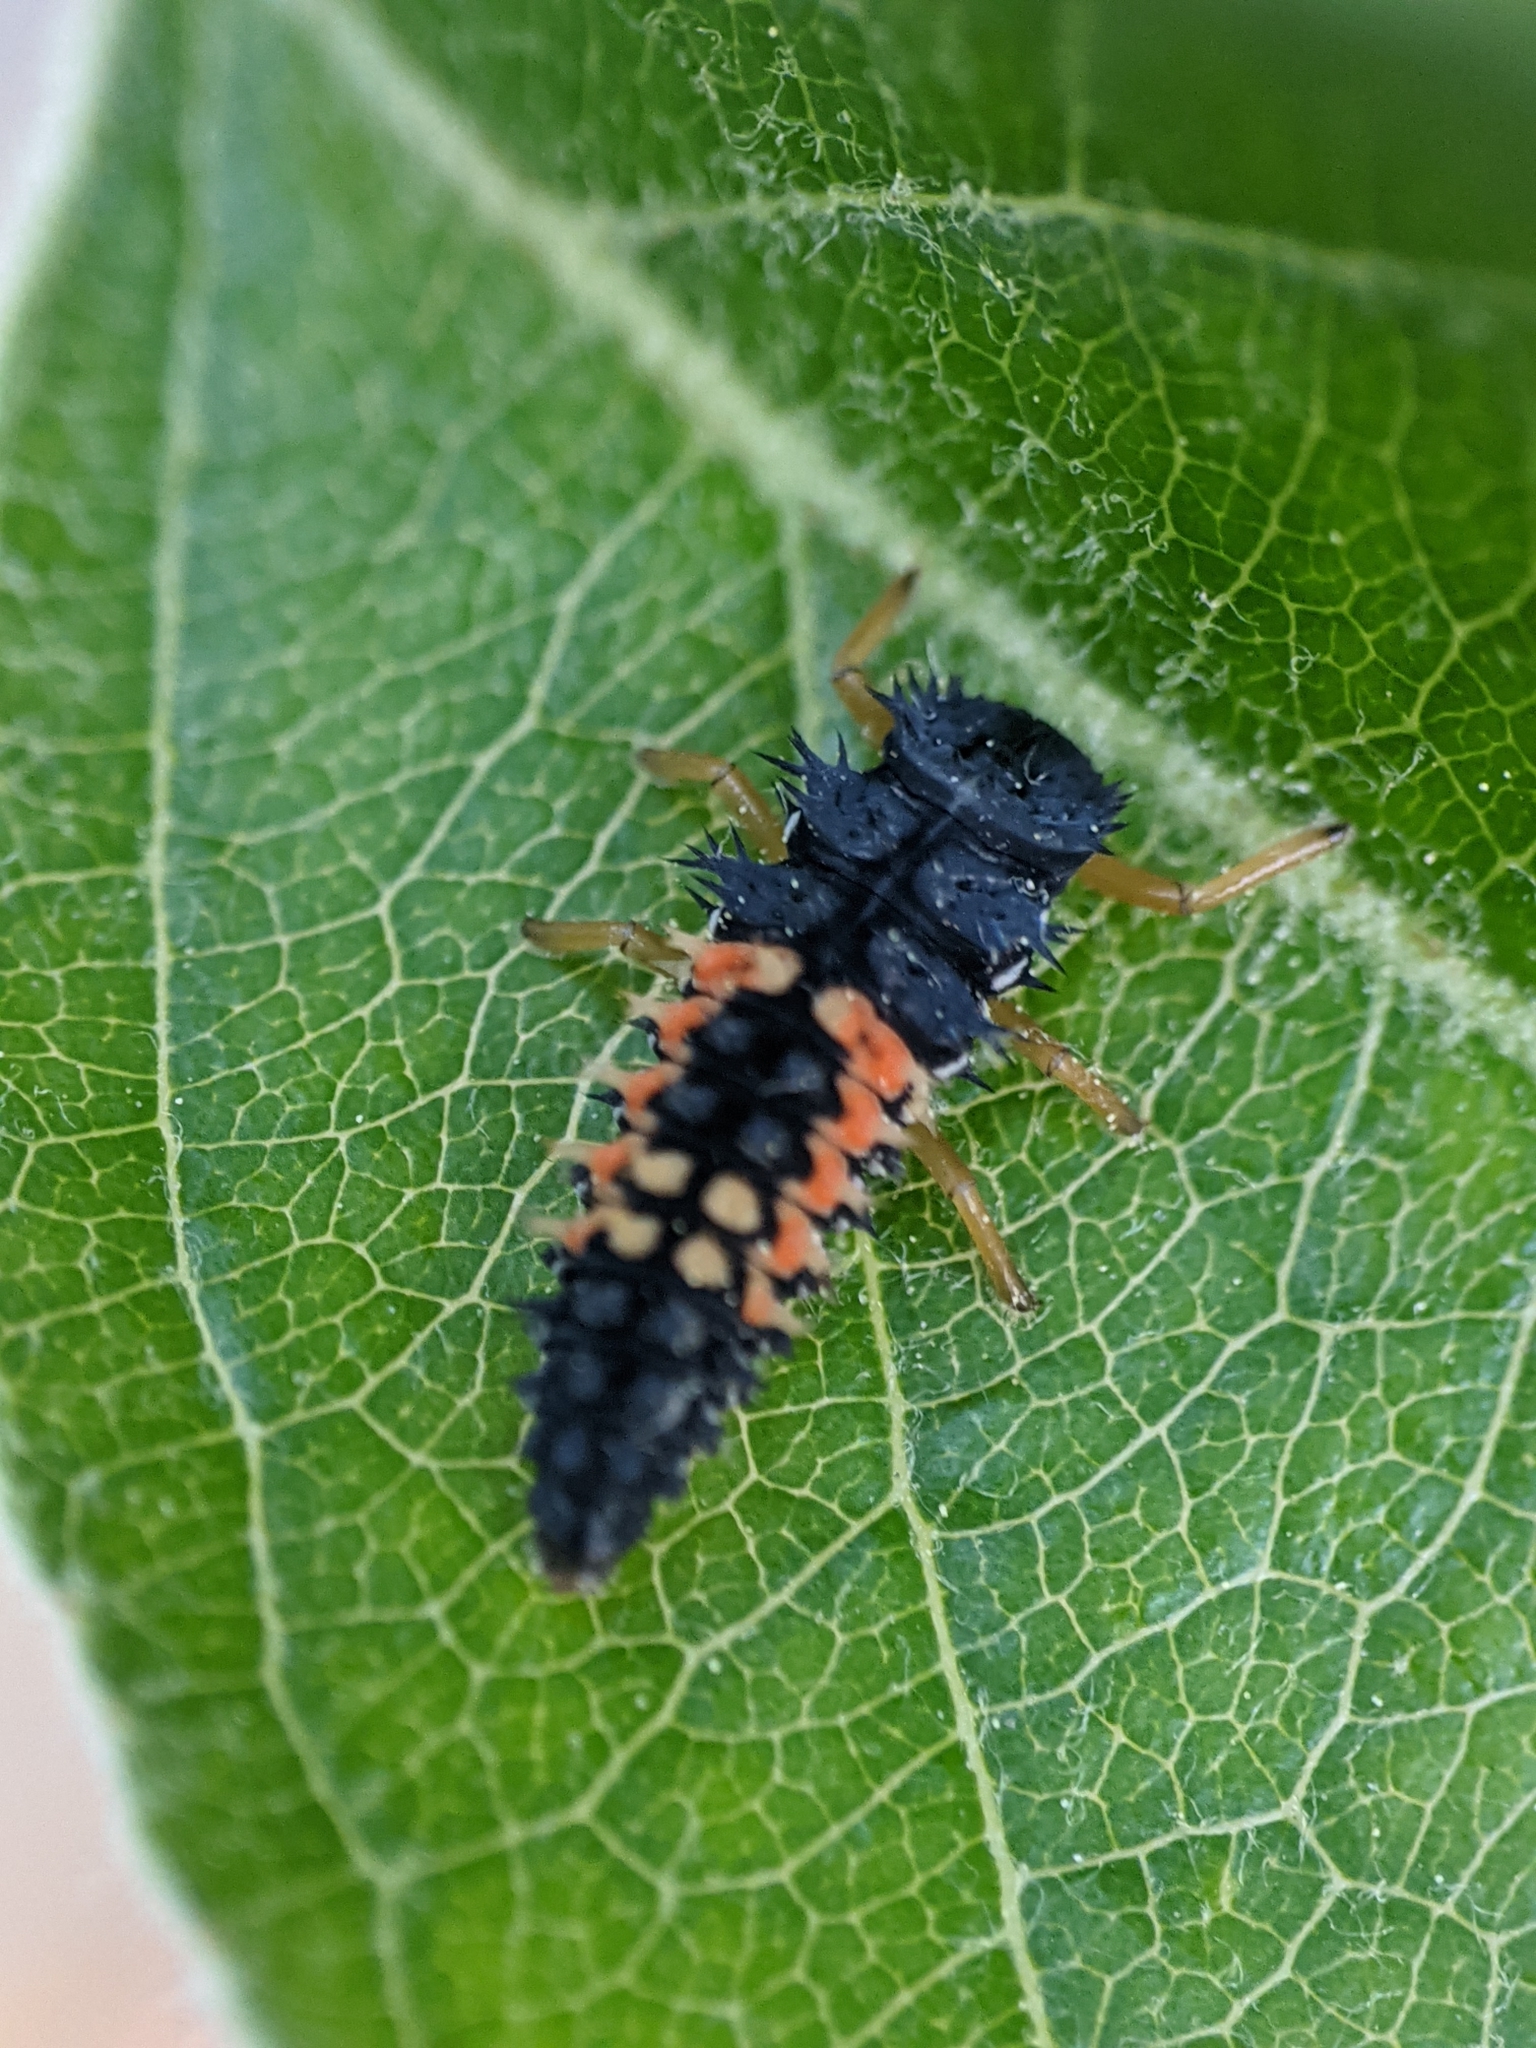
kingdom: Animalia
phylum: Arthropoda
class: Insecta
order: Coleoptera
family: Coccinellidae
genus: Harmonia
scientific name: Harmonia axyridis
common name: Harlequin ladybird
